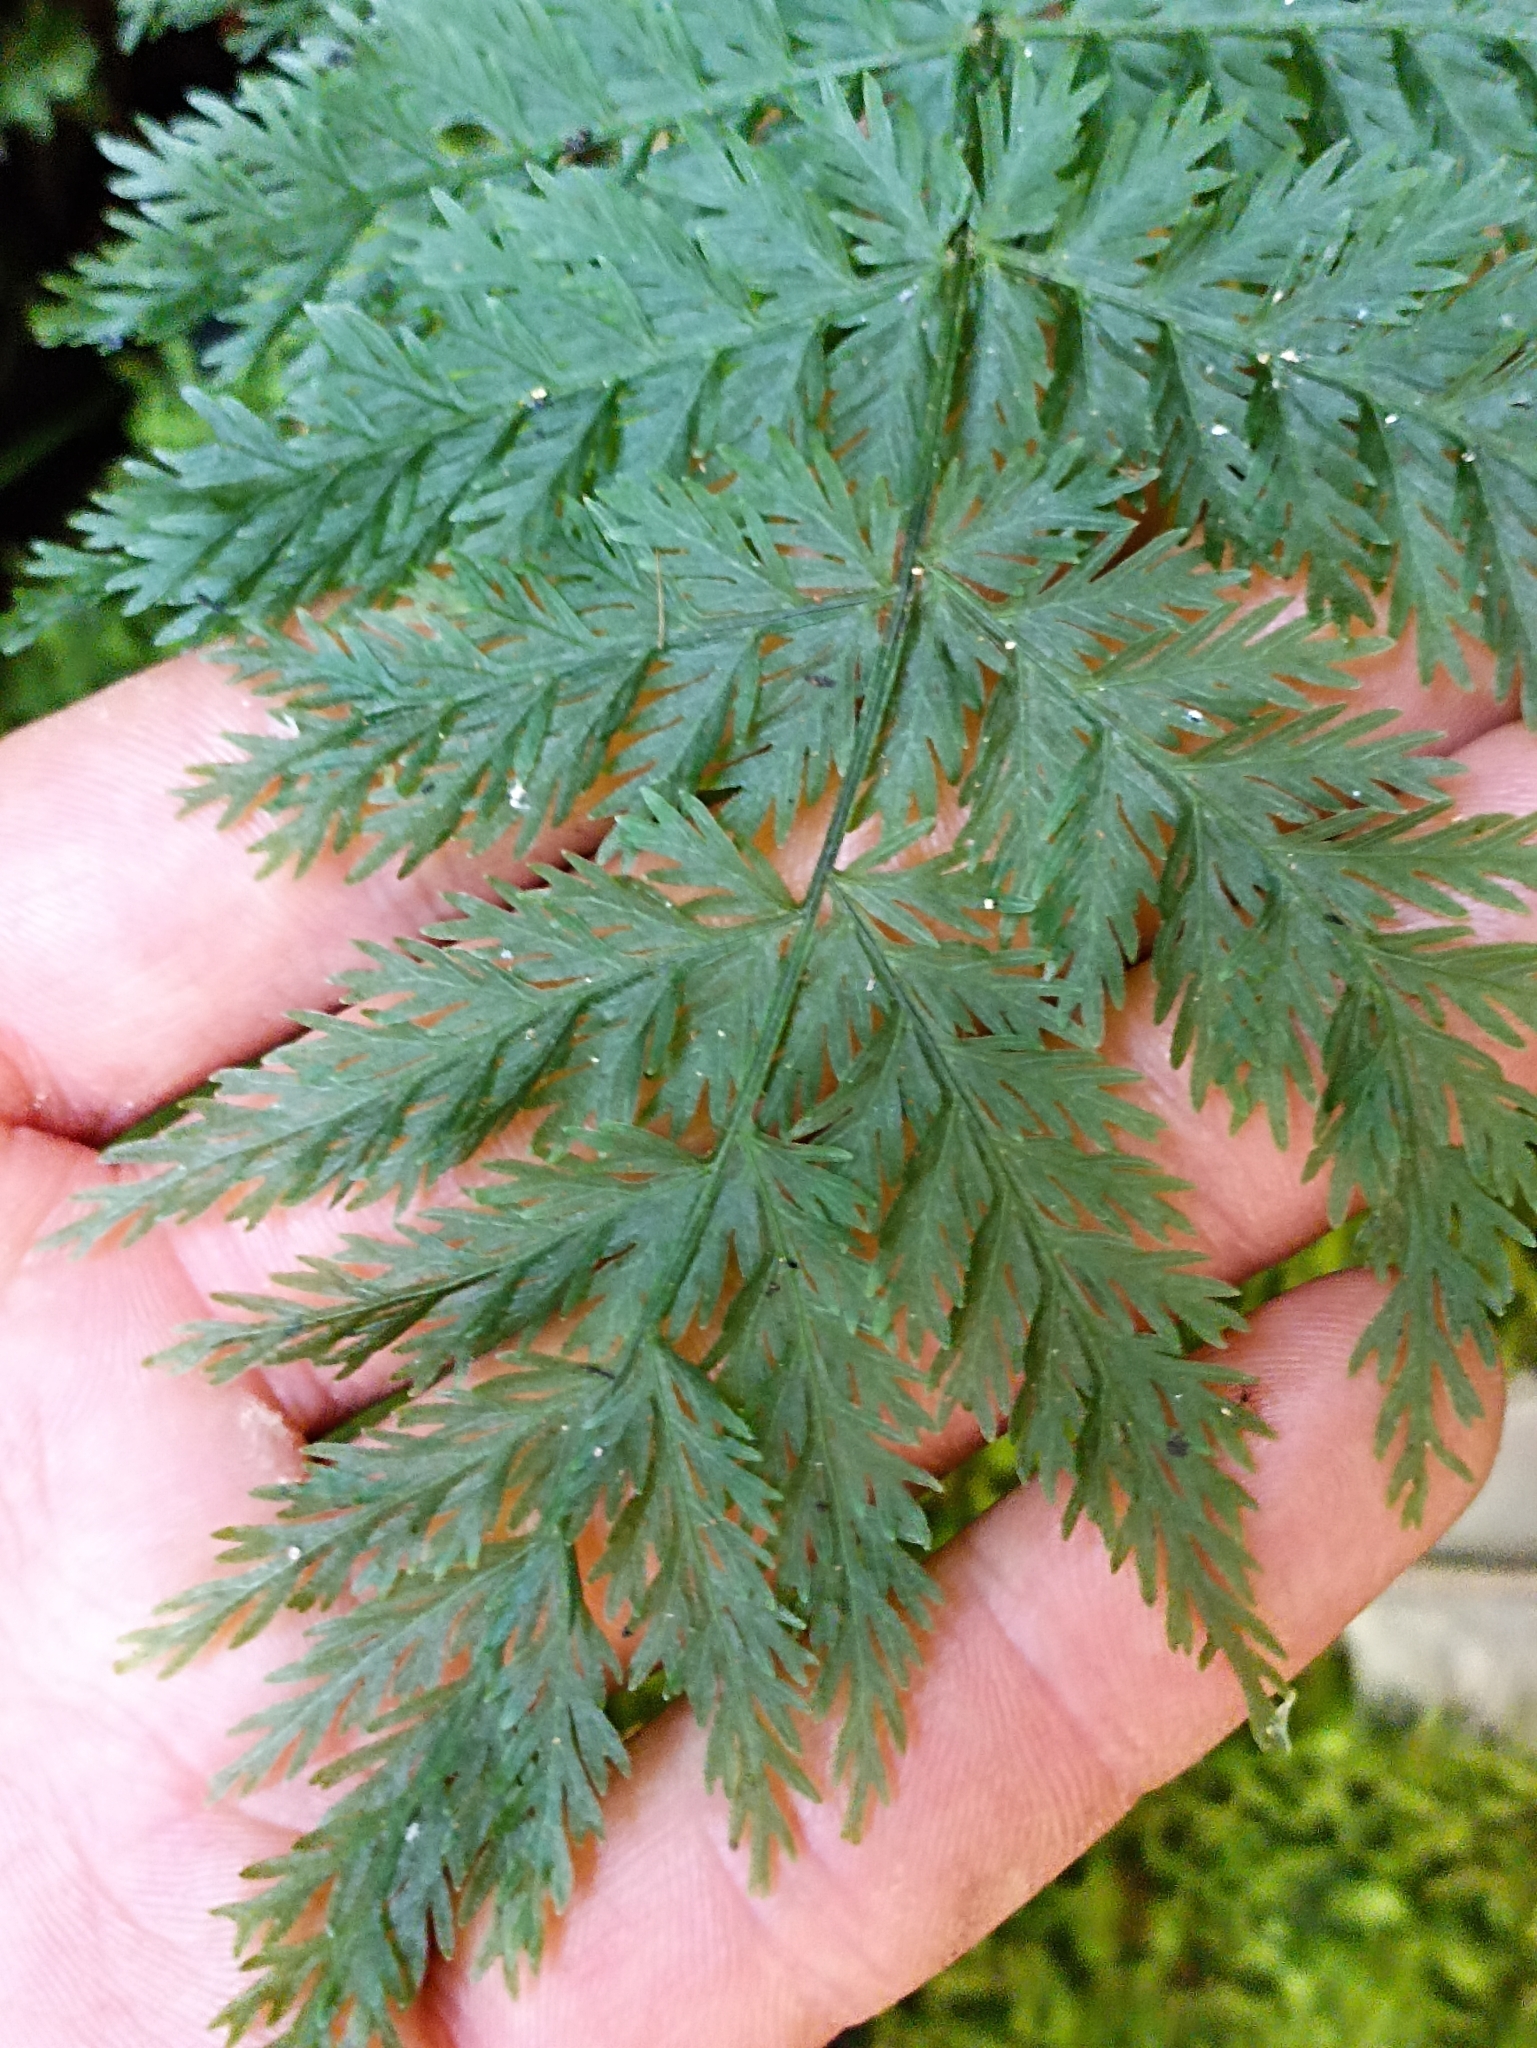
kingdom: Plantae
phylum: Tracheophyta
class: Polypodiopsida
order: Osmundales
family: Osmundaceae
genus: Leptopteris
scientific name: Leptopteris hymenophylloides
